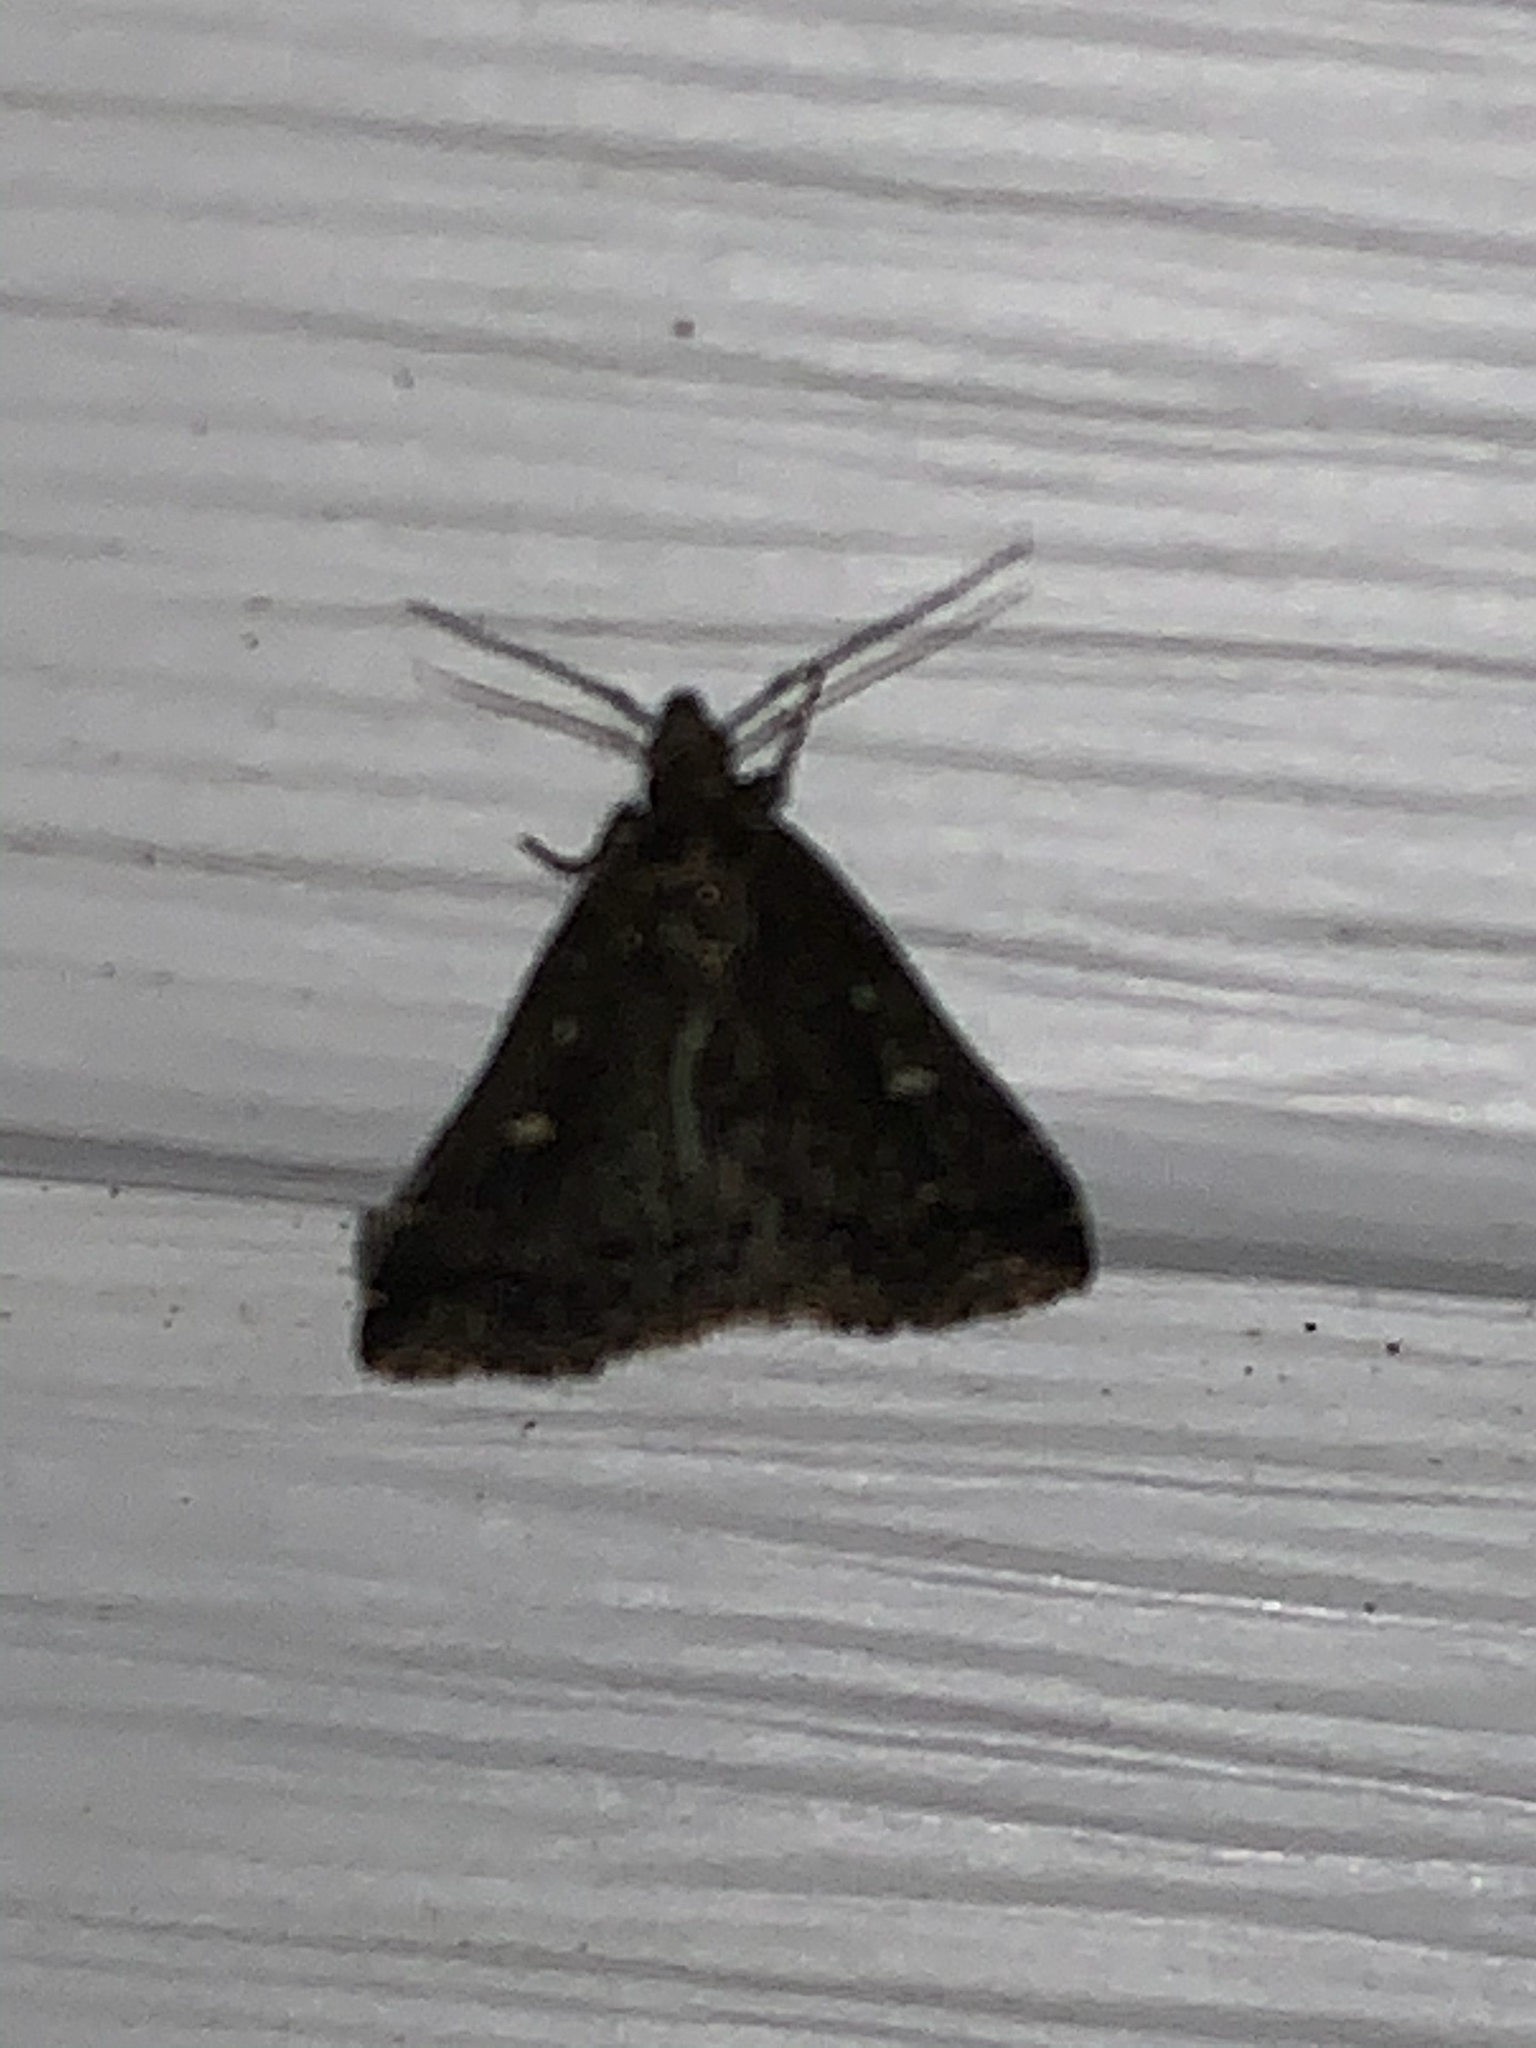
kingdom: Animalia
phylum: Arthropoda
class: Insecta
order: Lepidoptera
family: Erebidae
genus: Tetanolita
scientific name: Tetanolita mynesalis
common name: Smoky tetanolita moth
